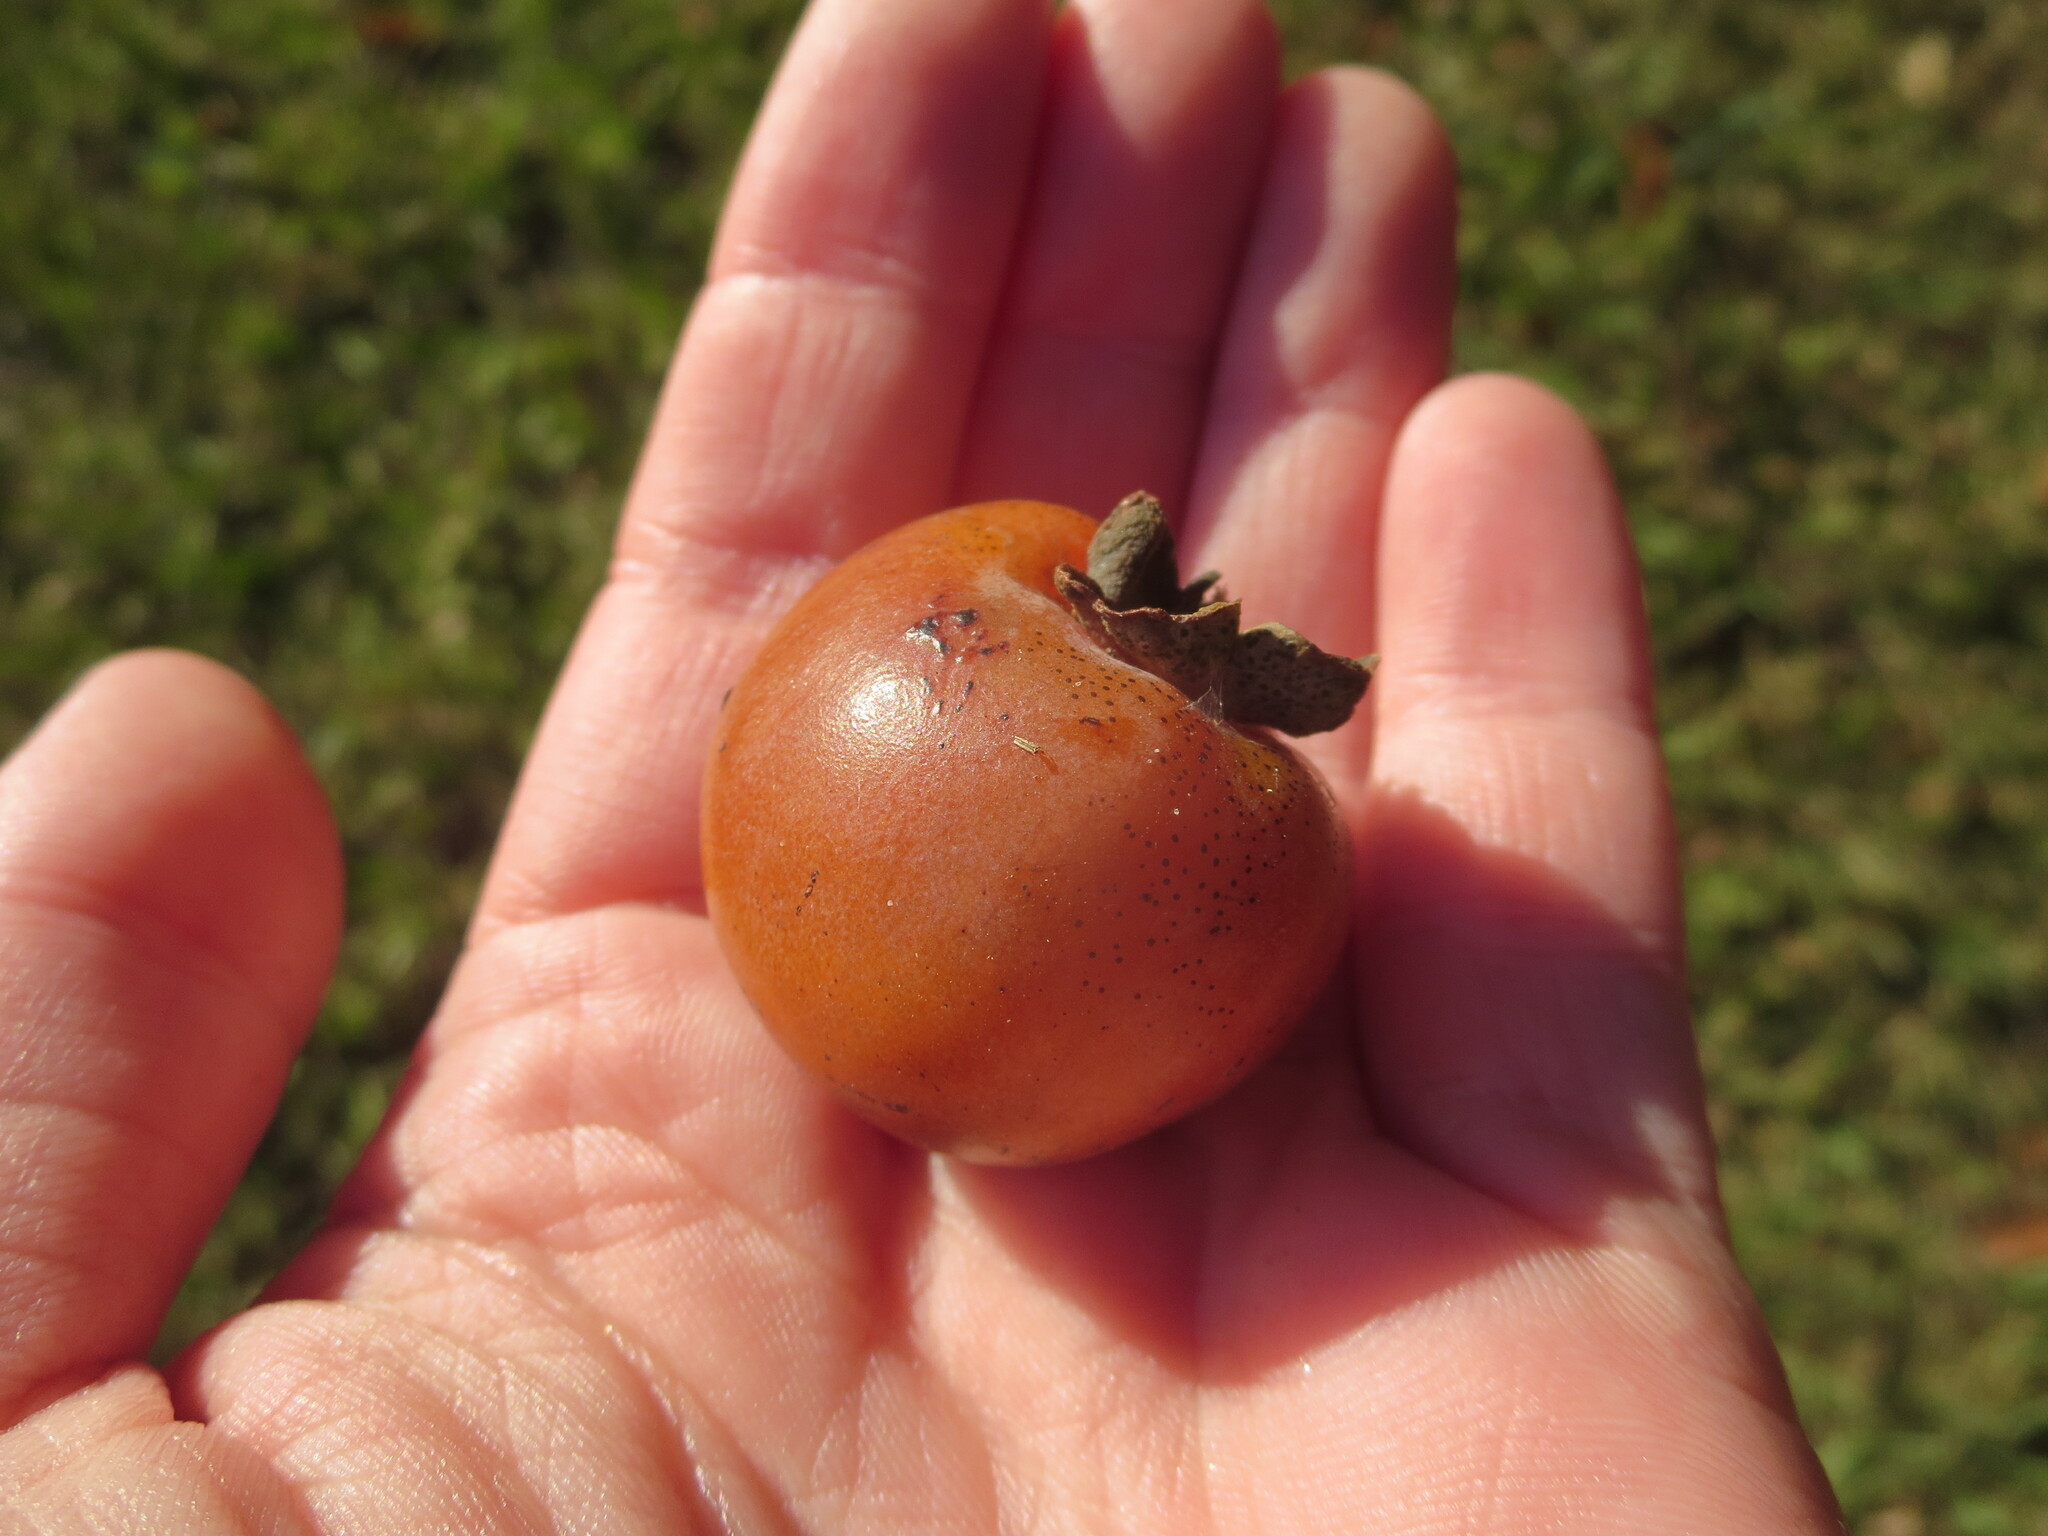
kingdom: Plantae
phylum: Tracheophyta
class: Magnoliopsida
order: Ericales
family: Ebenaceae
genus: Diospyros
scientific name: Diospyros virginiana
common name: Persimmon
